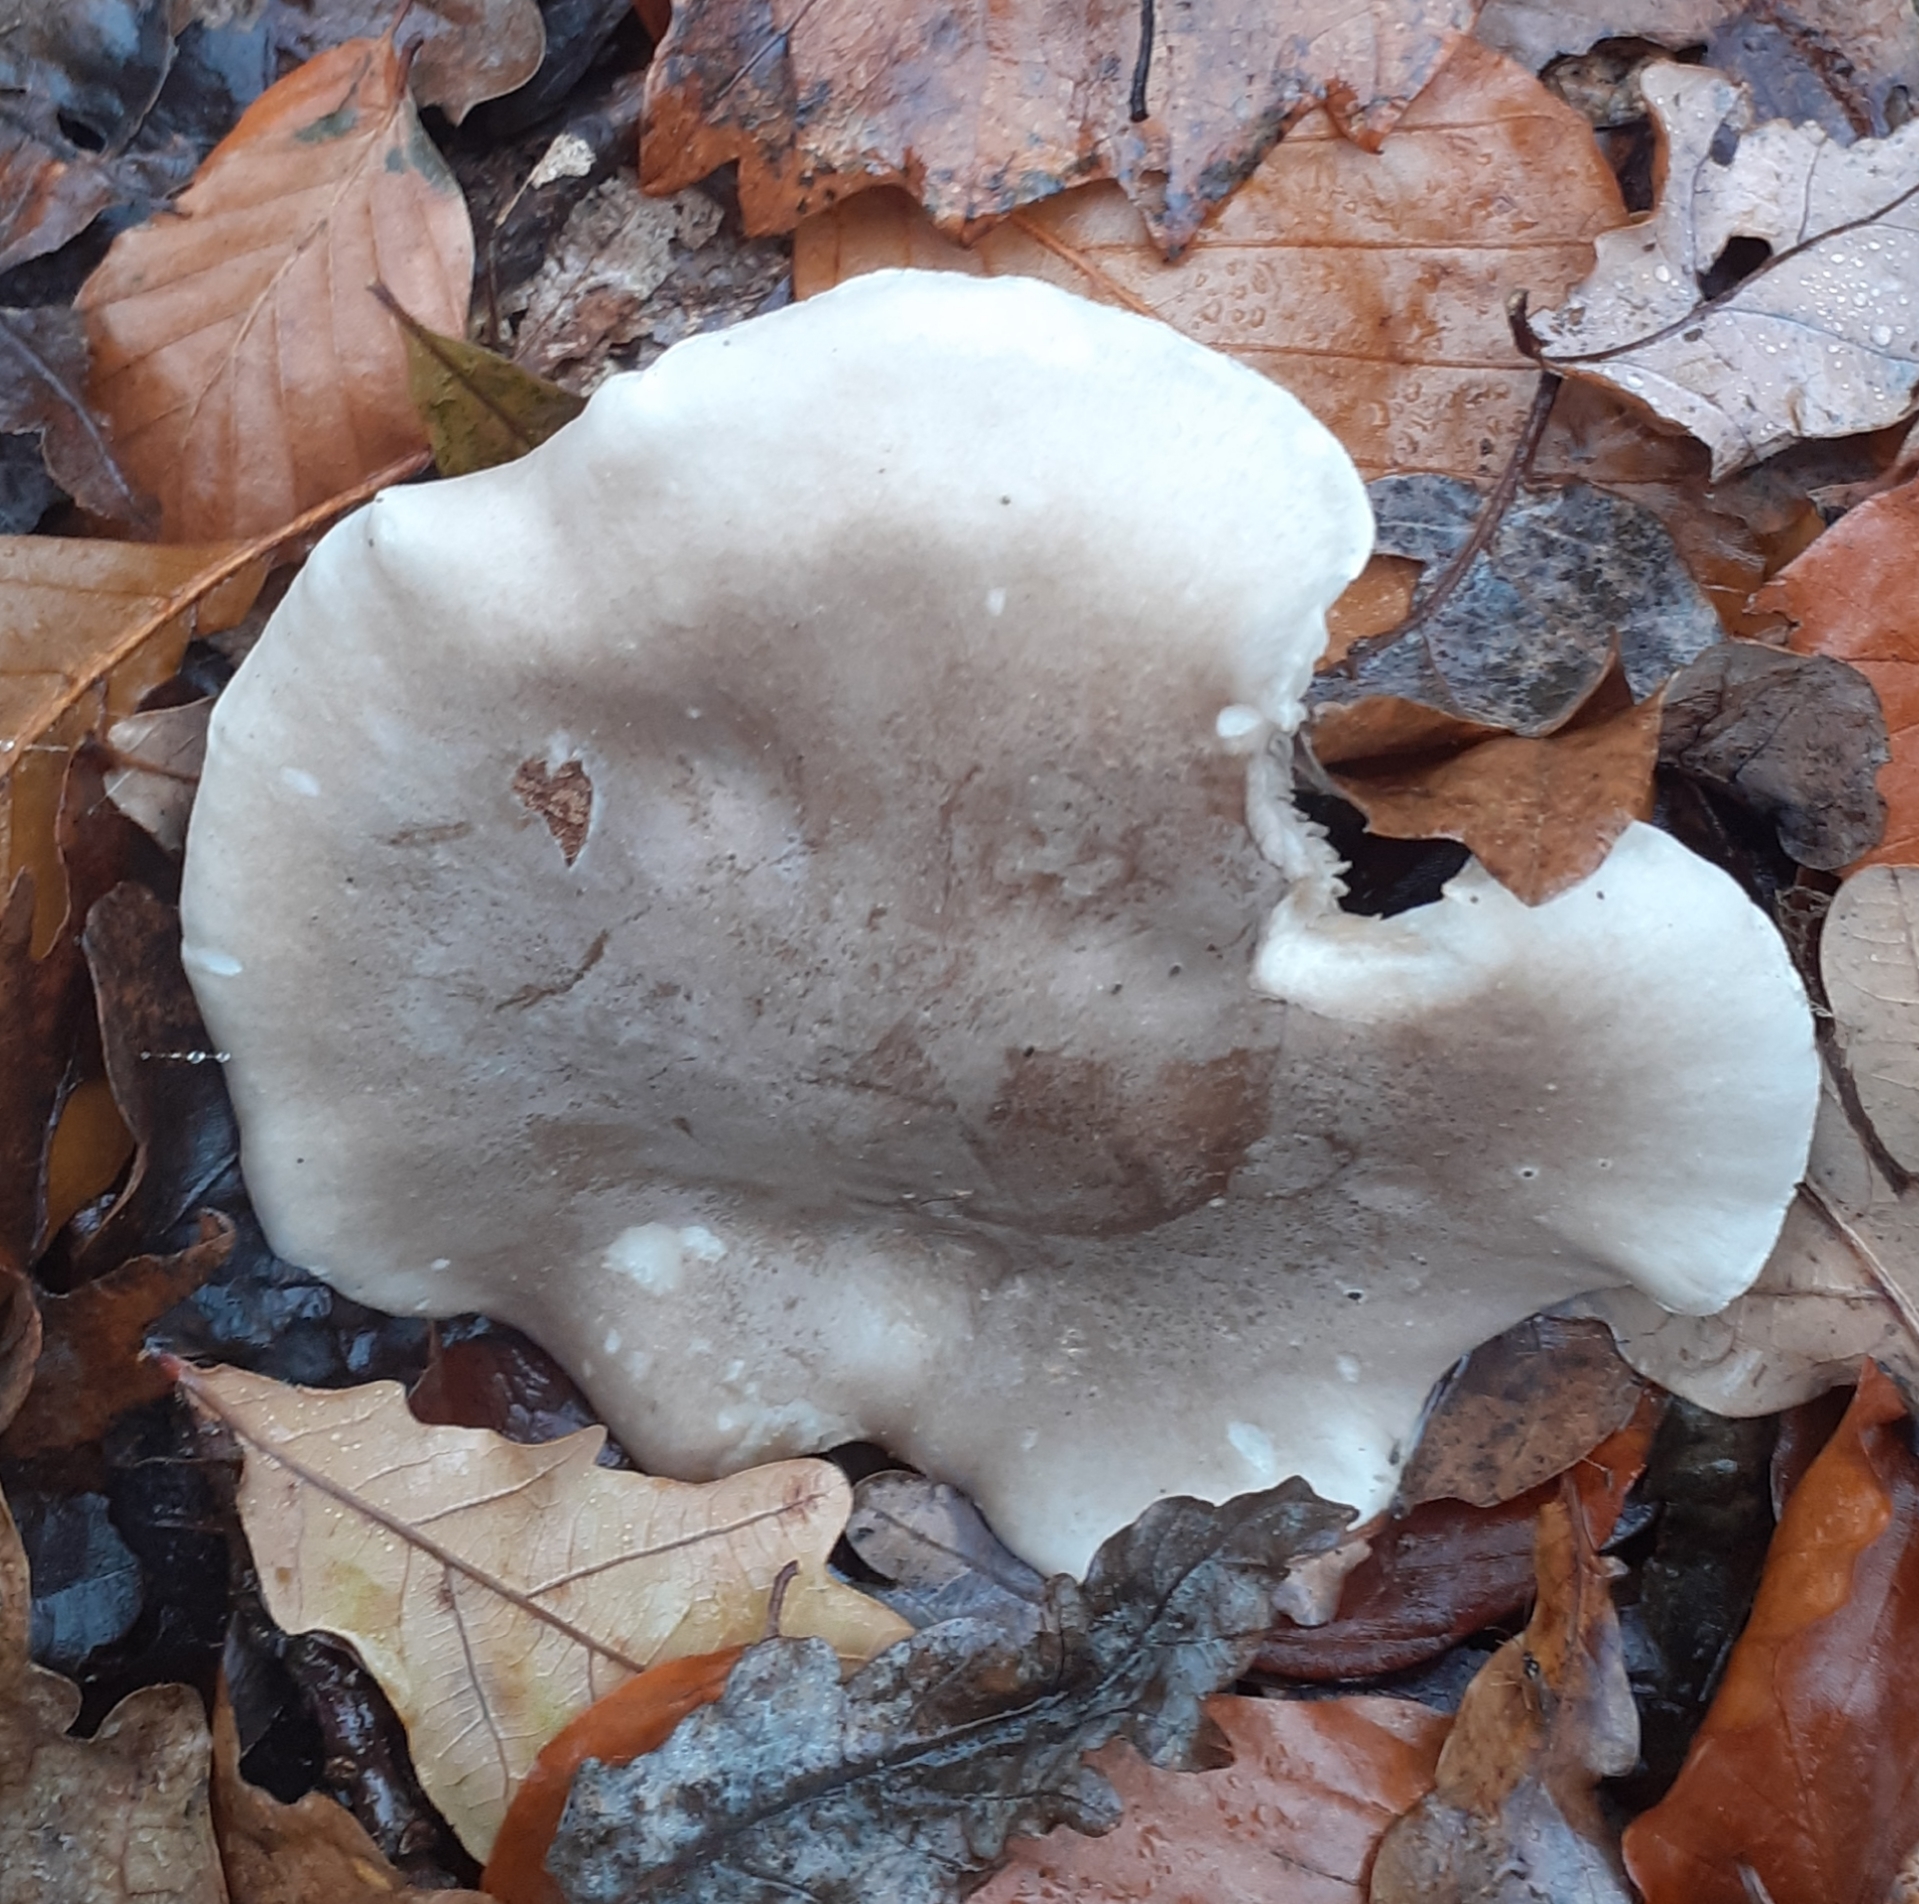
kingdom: Fungi
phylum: Basidiomycota
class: Agaricomycetes
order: Agaricales
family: Tricholomataceae
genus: Clitocybe
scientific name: Clitocybe nebularis
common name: Clouded agaric
